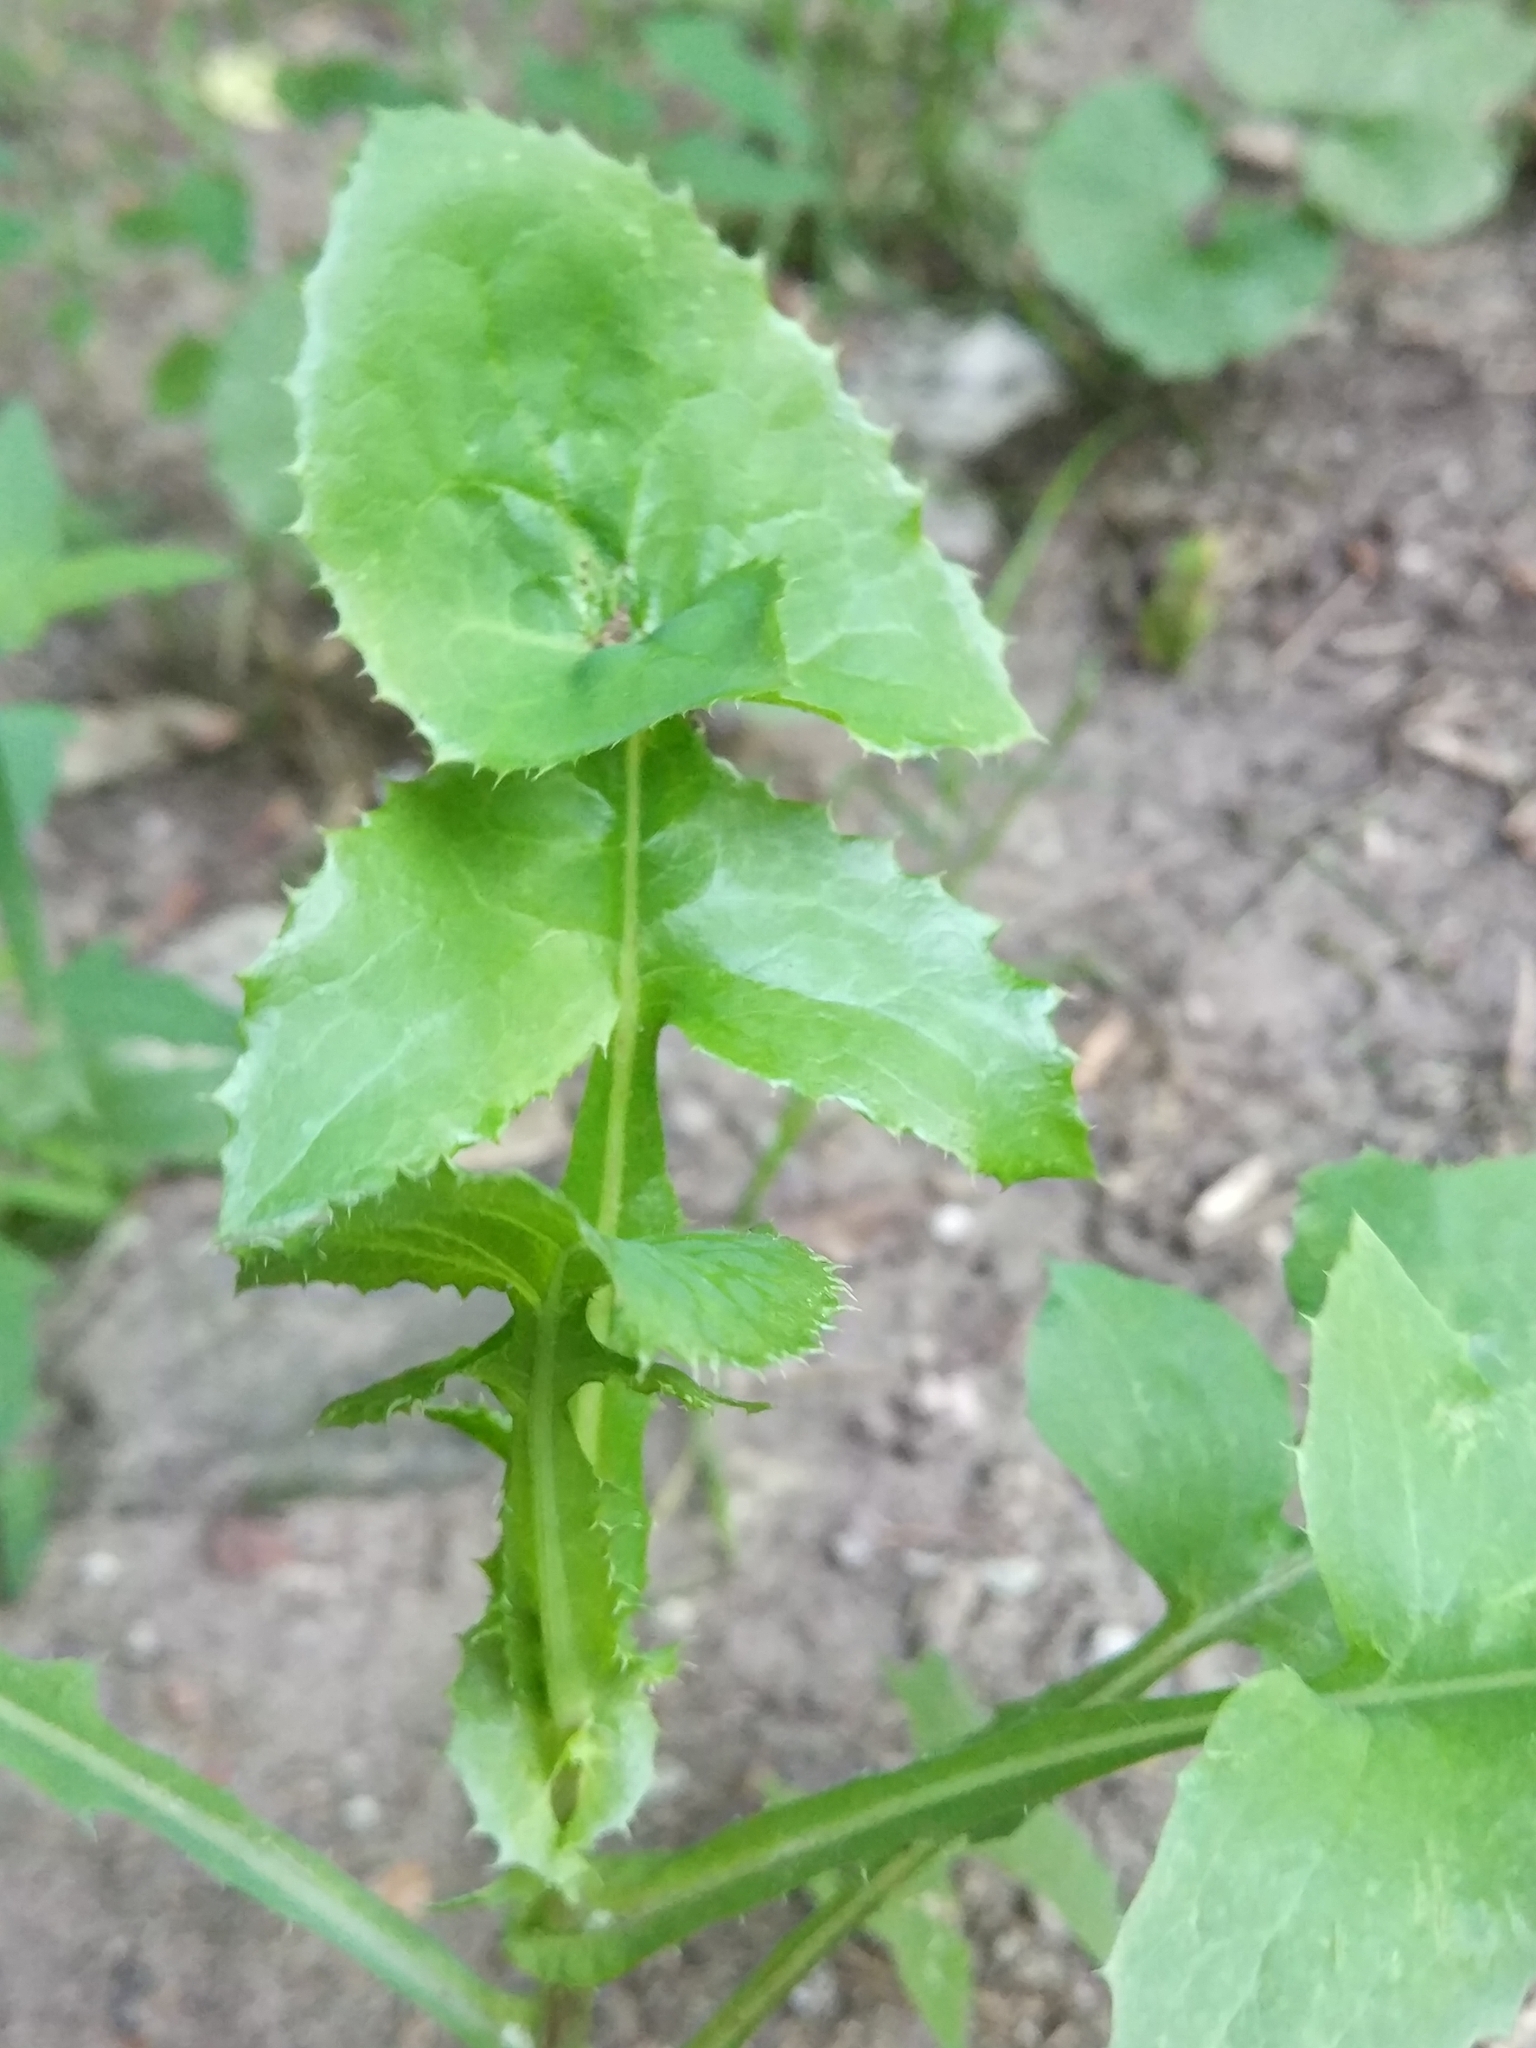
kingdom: Plantae
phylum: Tracheophyta
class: Magnoliopsida
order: Asterales
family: Asteraceae
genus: Sonchus
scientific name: Sonchus oleraceus
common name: Common sowthistle
